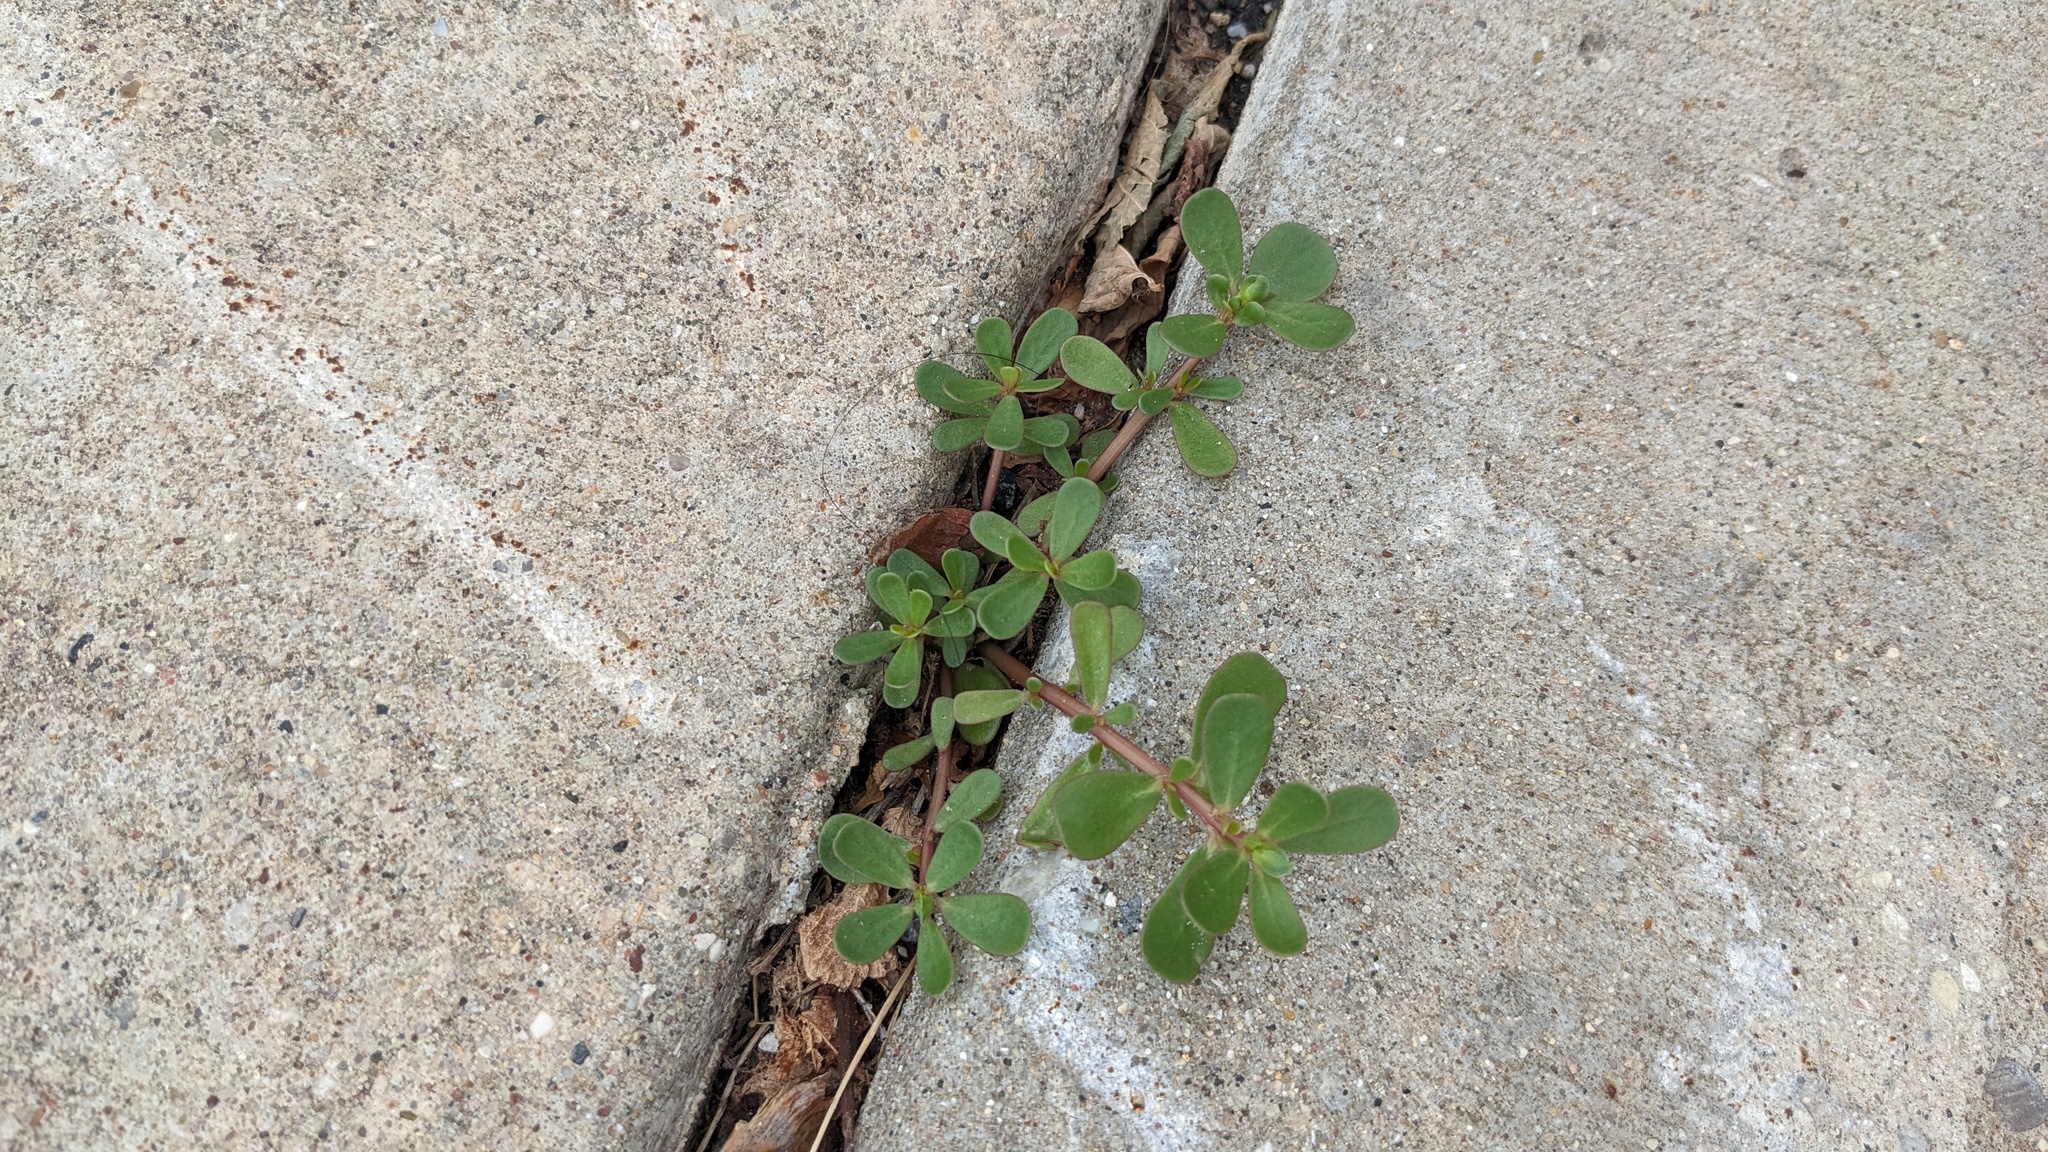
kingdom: Plantae
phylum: Tracheophyta
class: Magnoliopsida
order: Caryophyllales
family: Portulacaceae
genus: Portulaca
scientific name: Portulaca oleracea
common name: Common purslane
